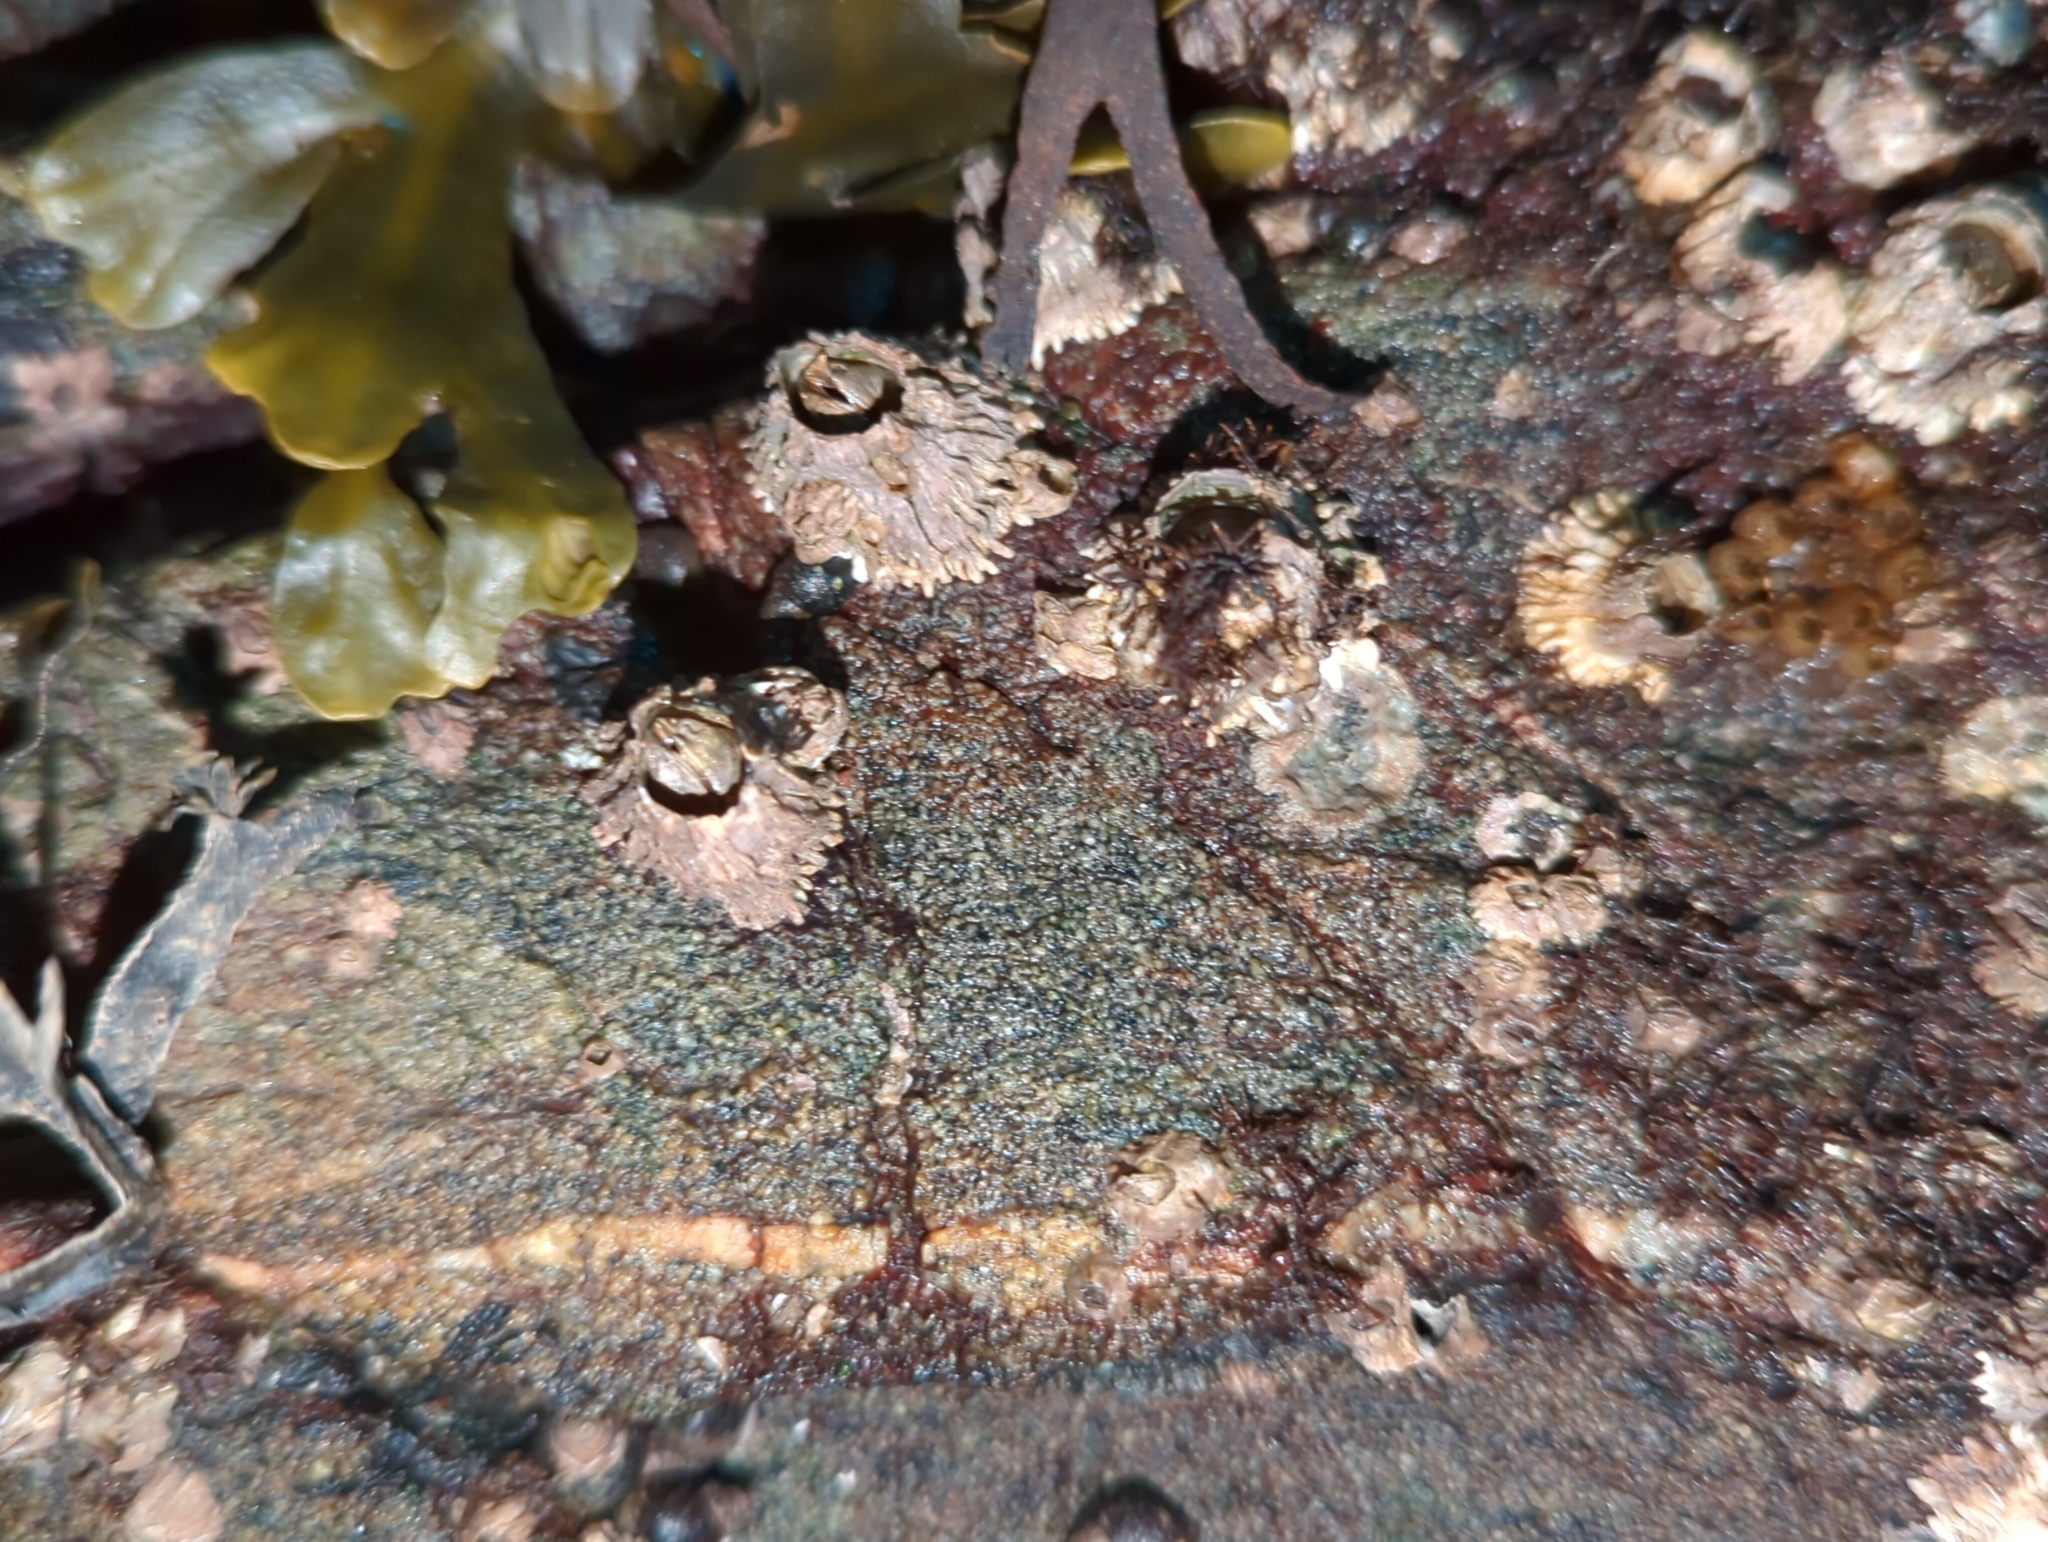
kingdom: Animalia
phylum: Arthropoda
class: Maxillopoda
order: Sessilia
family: Archaeobalanidae
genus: Semibalanus
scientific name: Semibalanus cariosus
